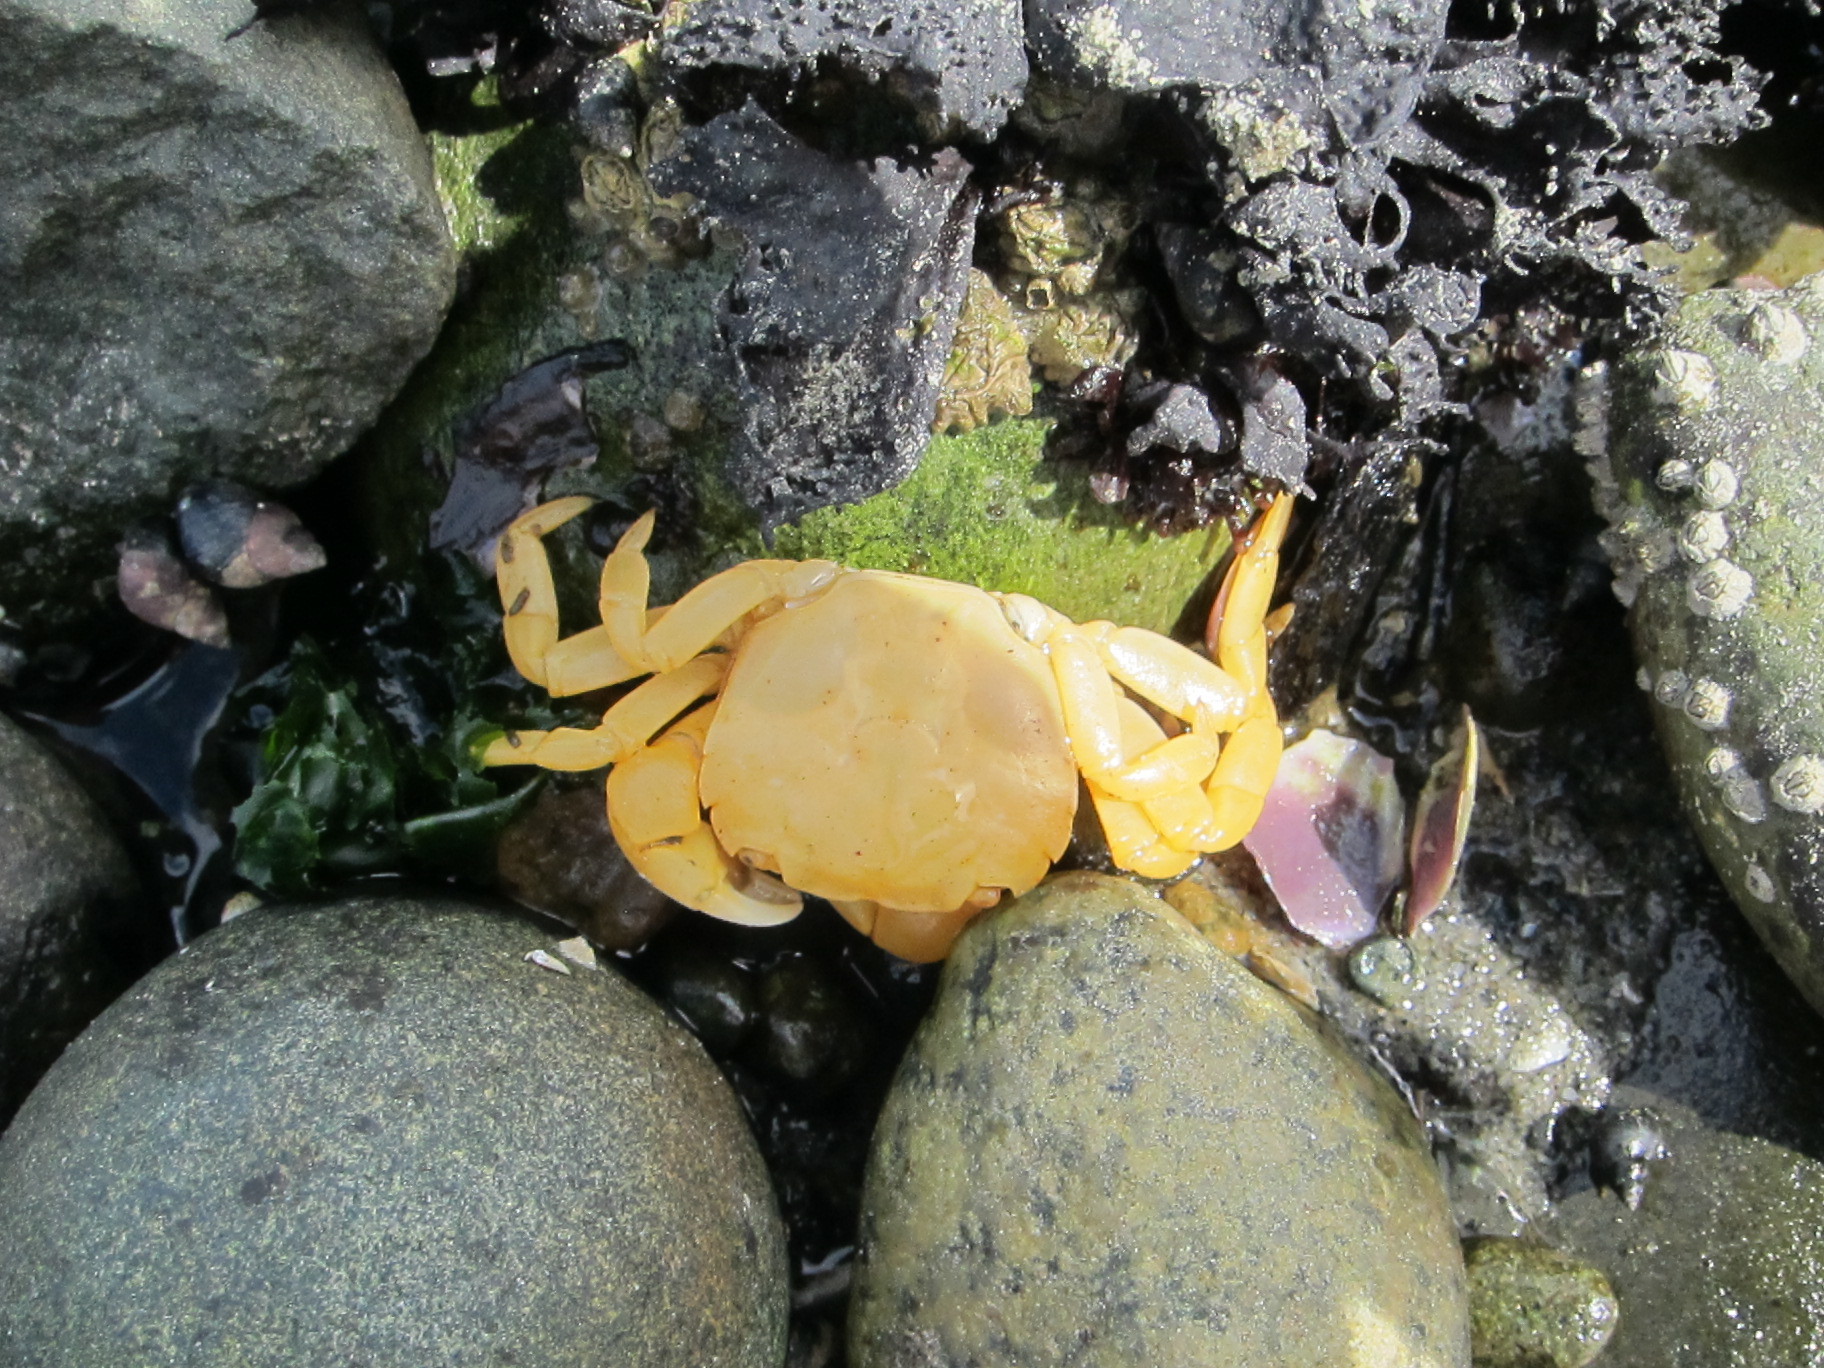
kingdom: Animalia
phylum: Arthropoda
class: Malacostraca
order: Decapoda
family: Varunidae
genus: Hemigrapsus
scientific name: Hemigrapsus nudus
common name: Purple shore crab
